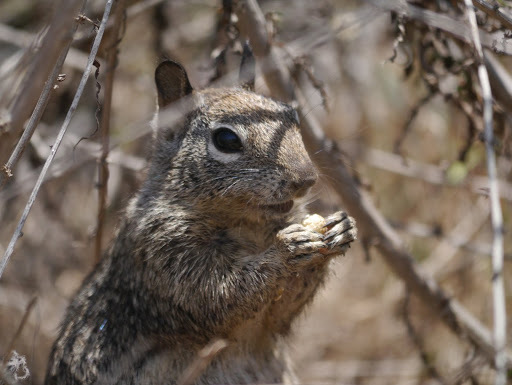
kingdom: Animalia
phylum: Chordata
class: Mammalia
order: Rodentia
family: Sciuridae
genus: Otospermophilus
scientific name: Otospermophilus beecheyi
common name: California ground squirrel
